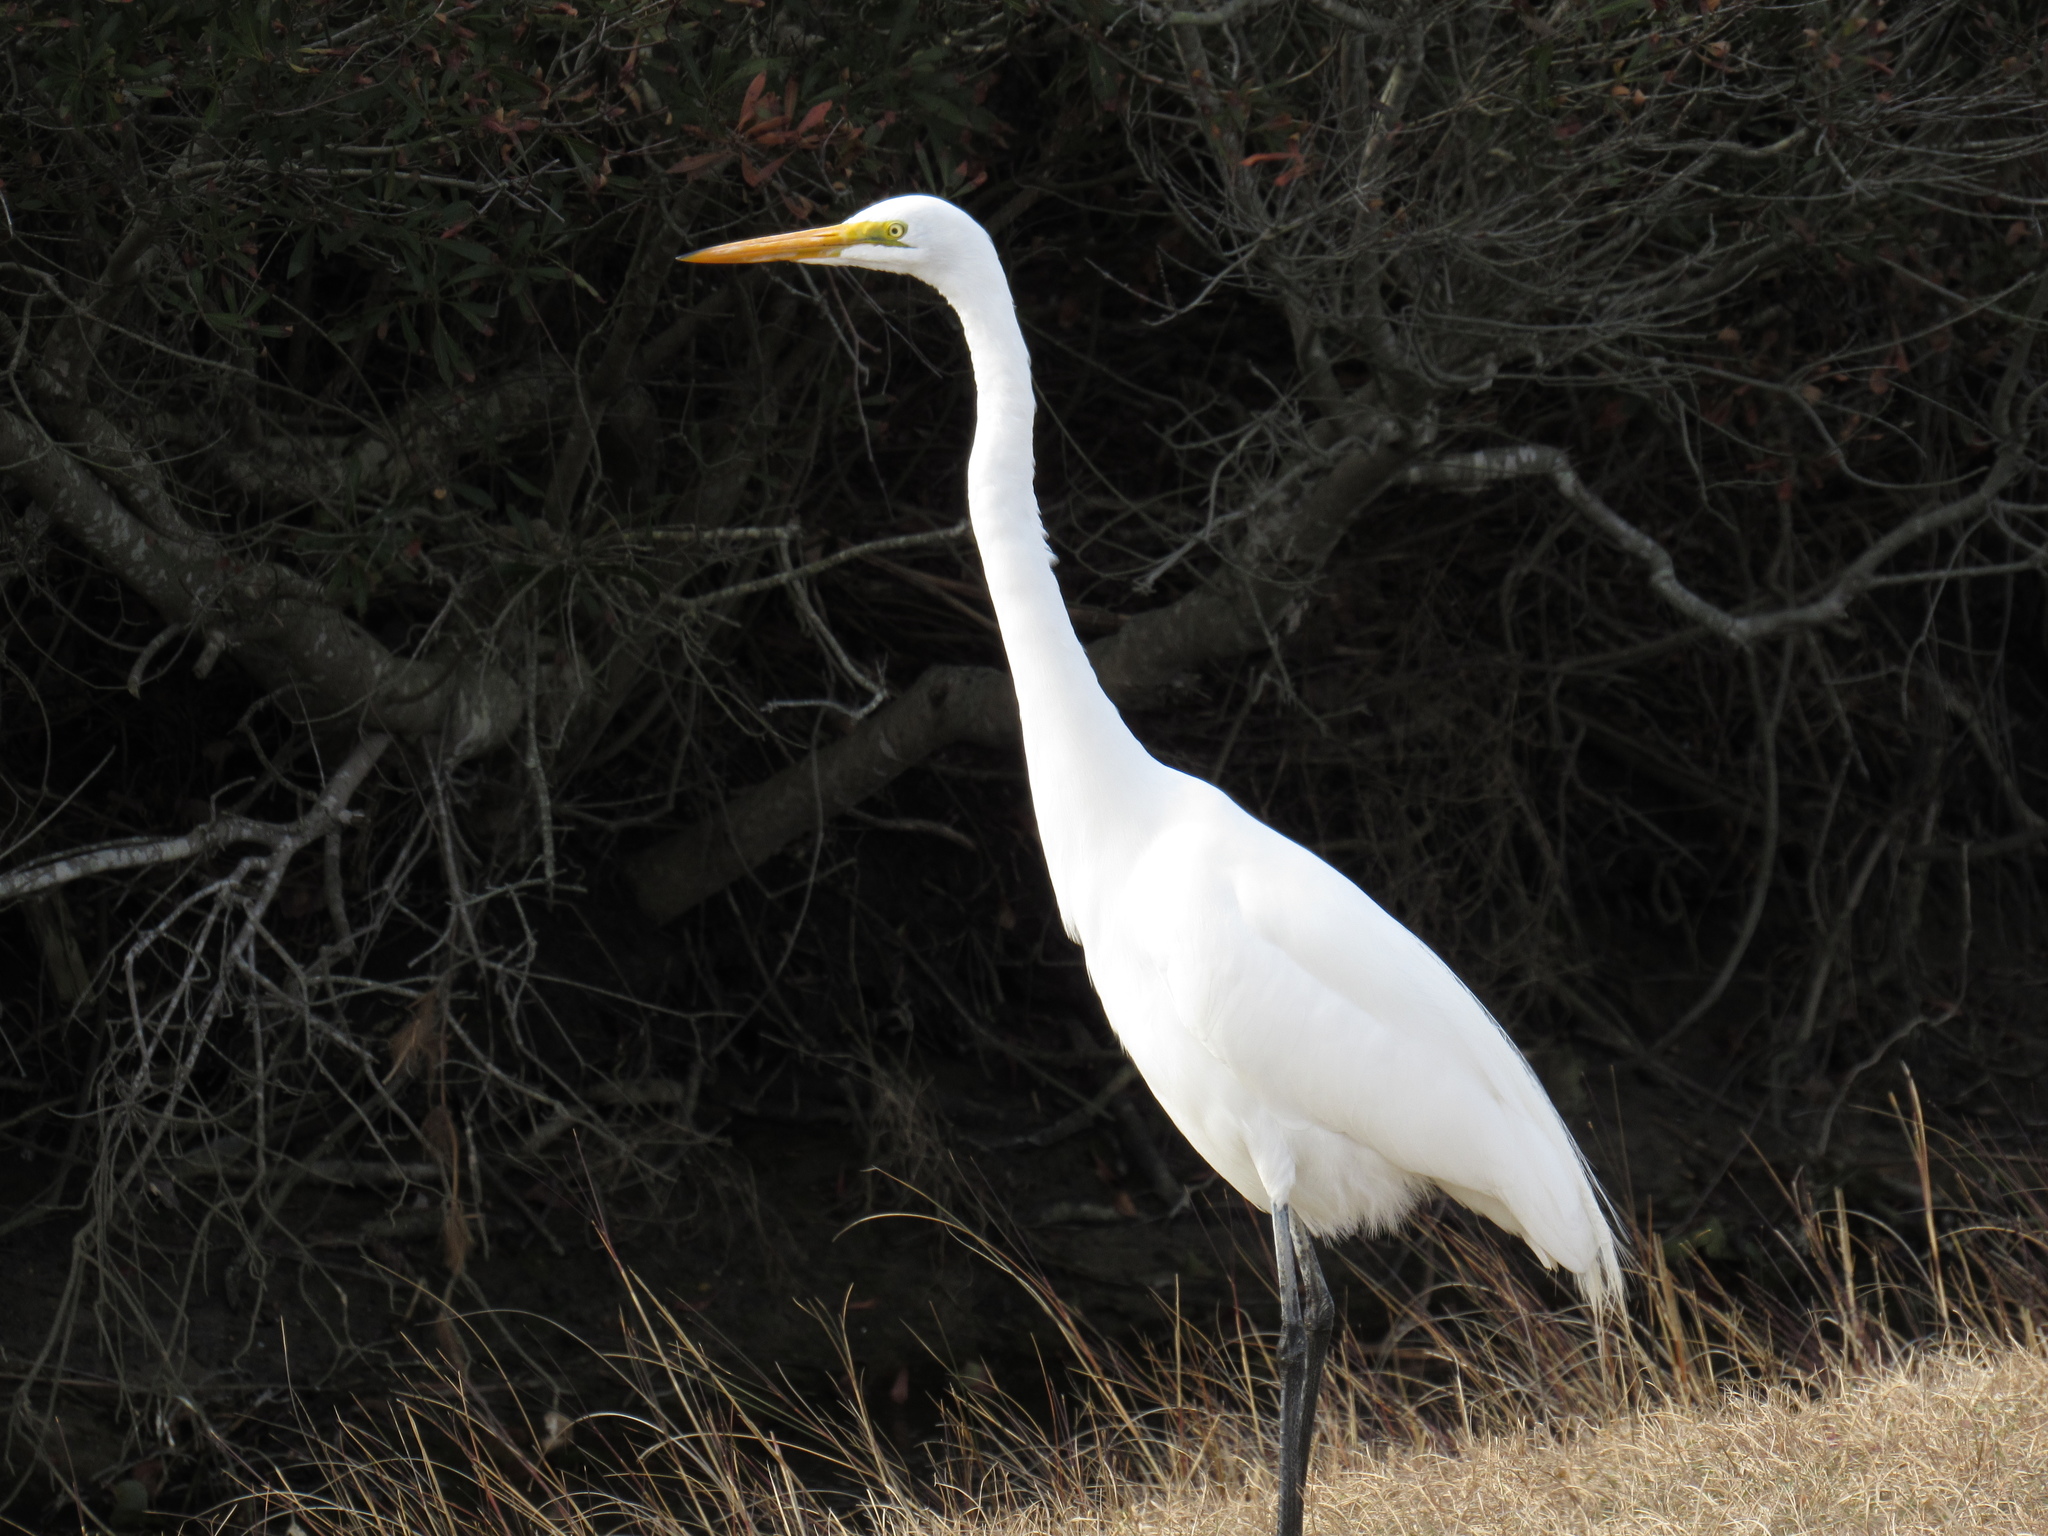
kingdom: Animalia
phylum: Chordata
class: Aves
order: Pelecaniformes
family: Ardeidae
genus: Ardea
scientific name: Ardea alba
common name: Great egret
